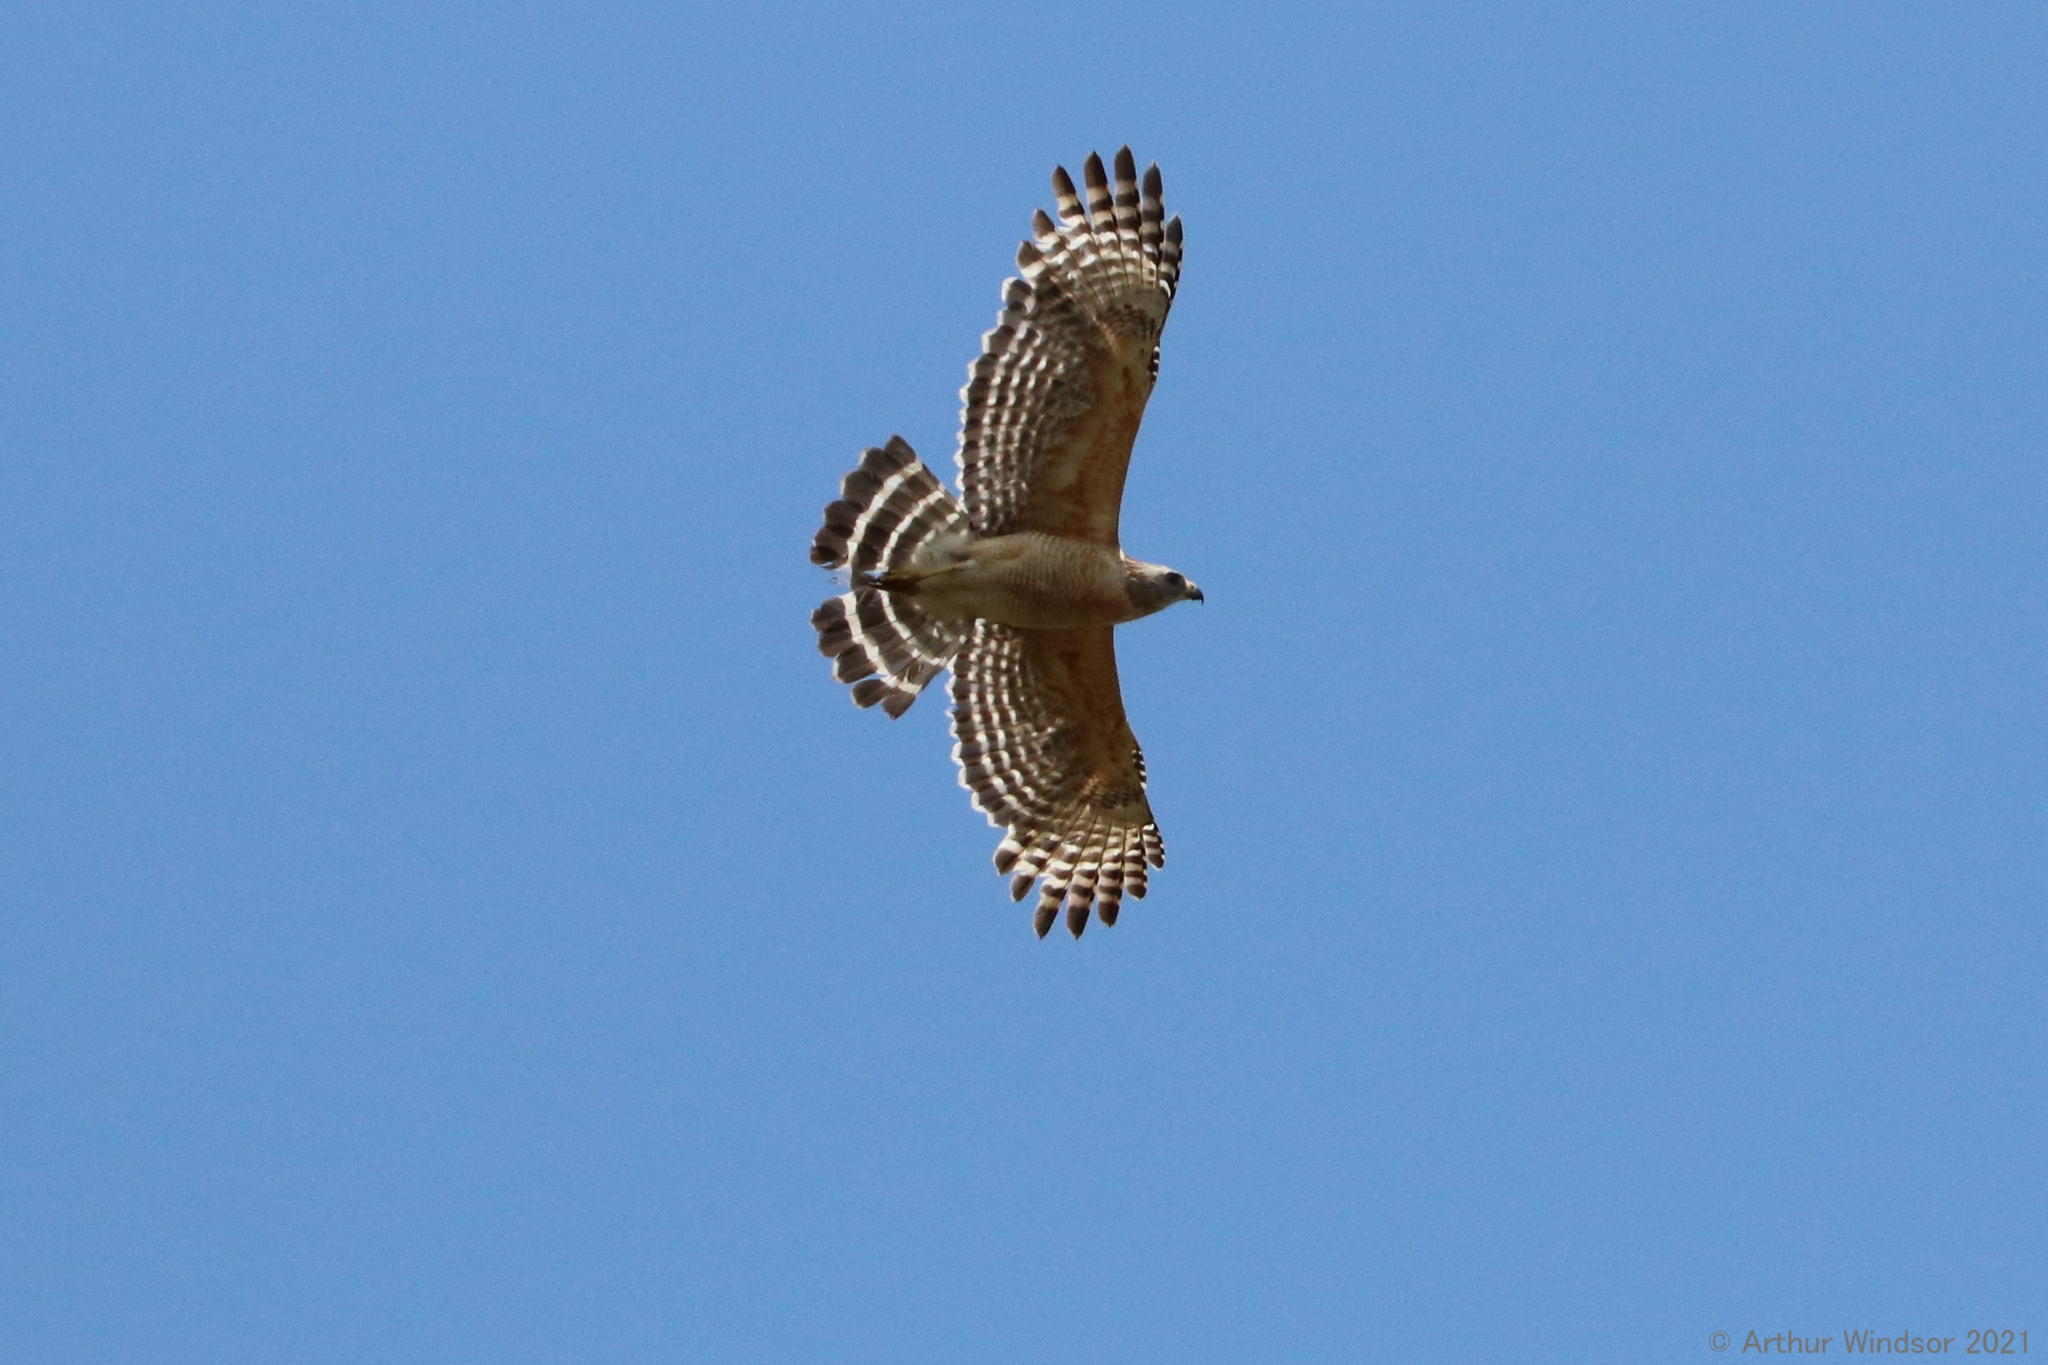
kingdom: Animalia
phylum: Chordata
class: Aves
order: Accipitriformes
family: Accipitridae
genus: Buteo
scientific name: Buteo lineatus
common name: Red-shouldered hawk
